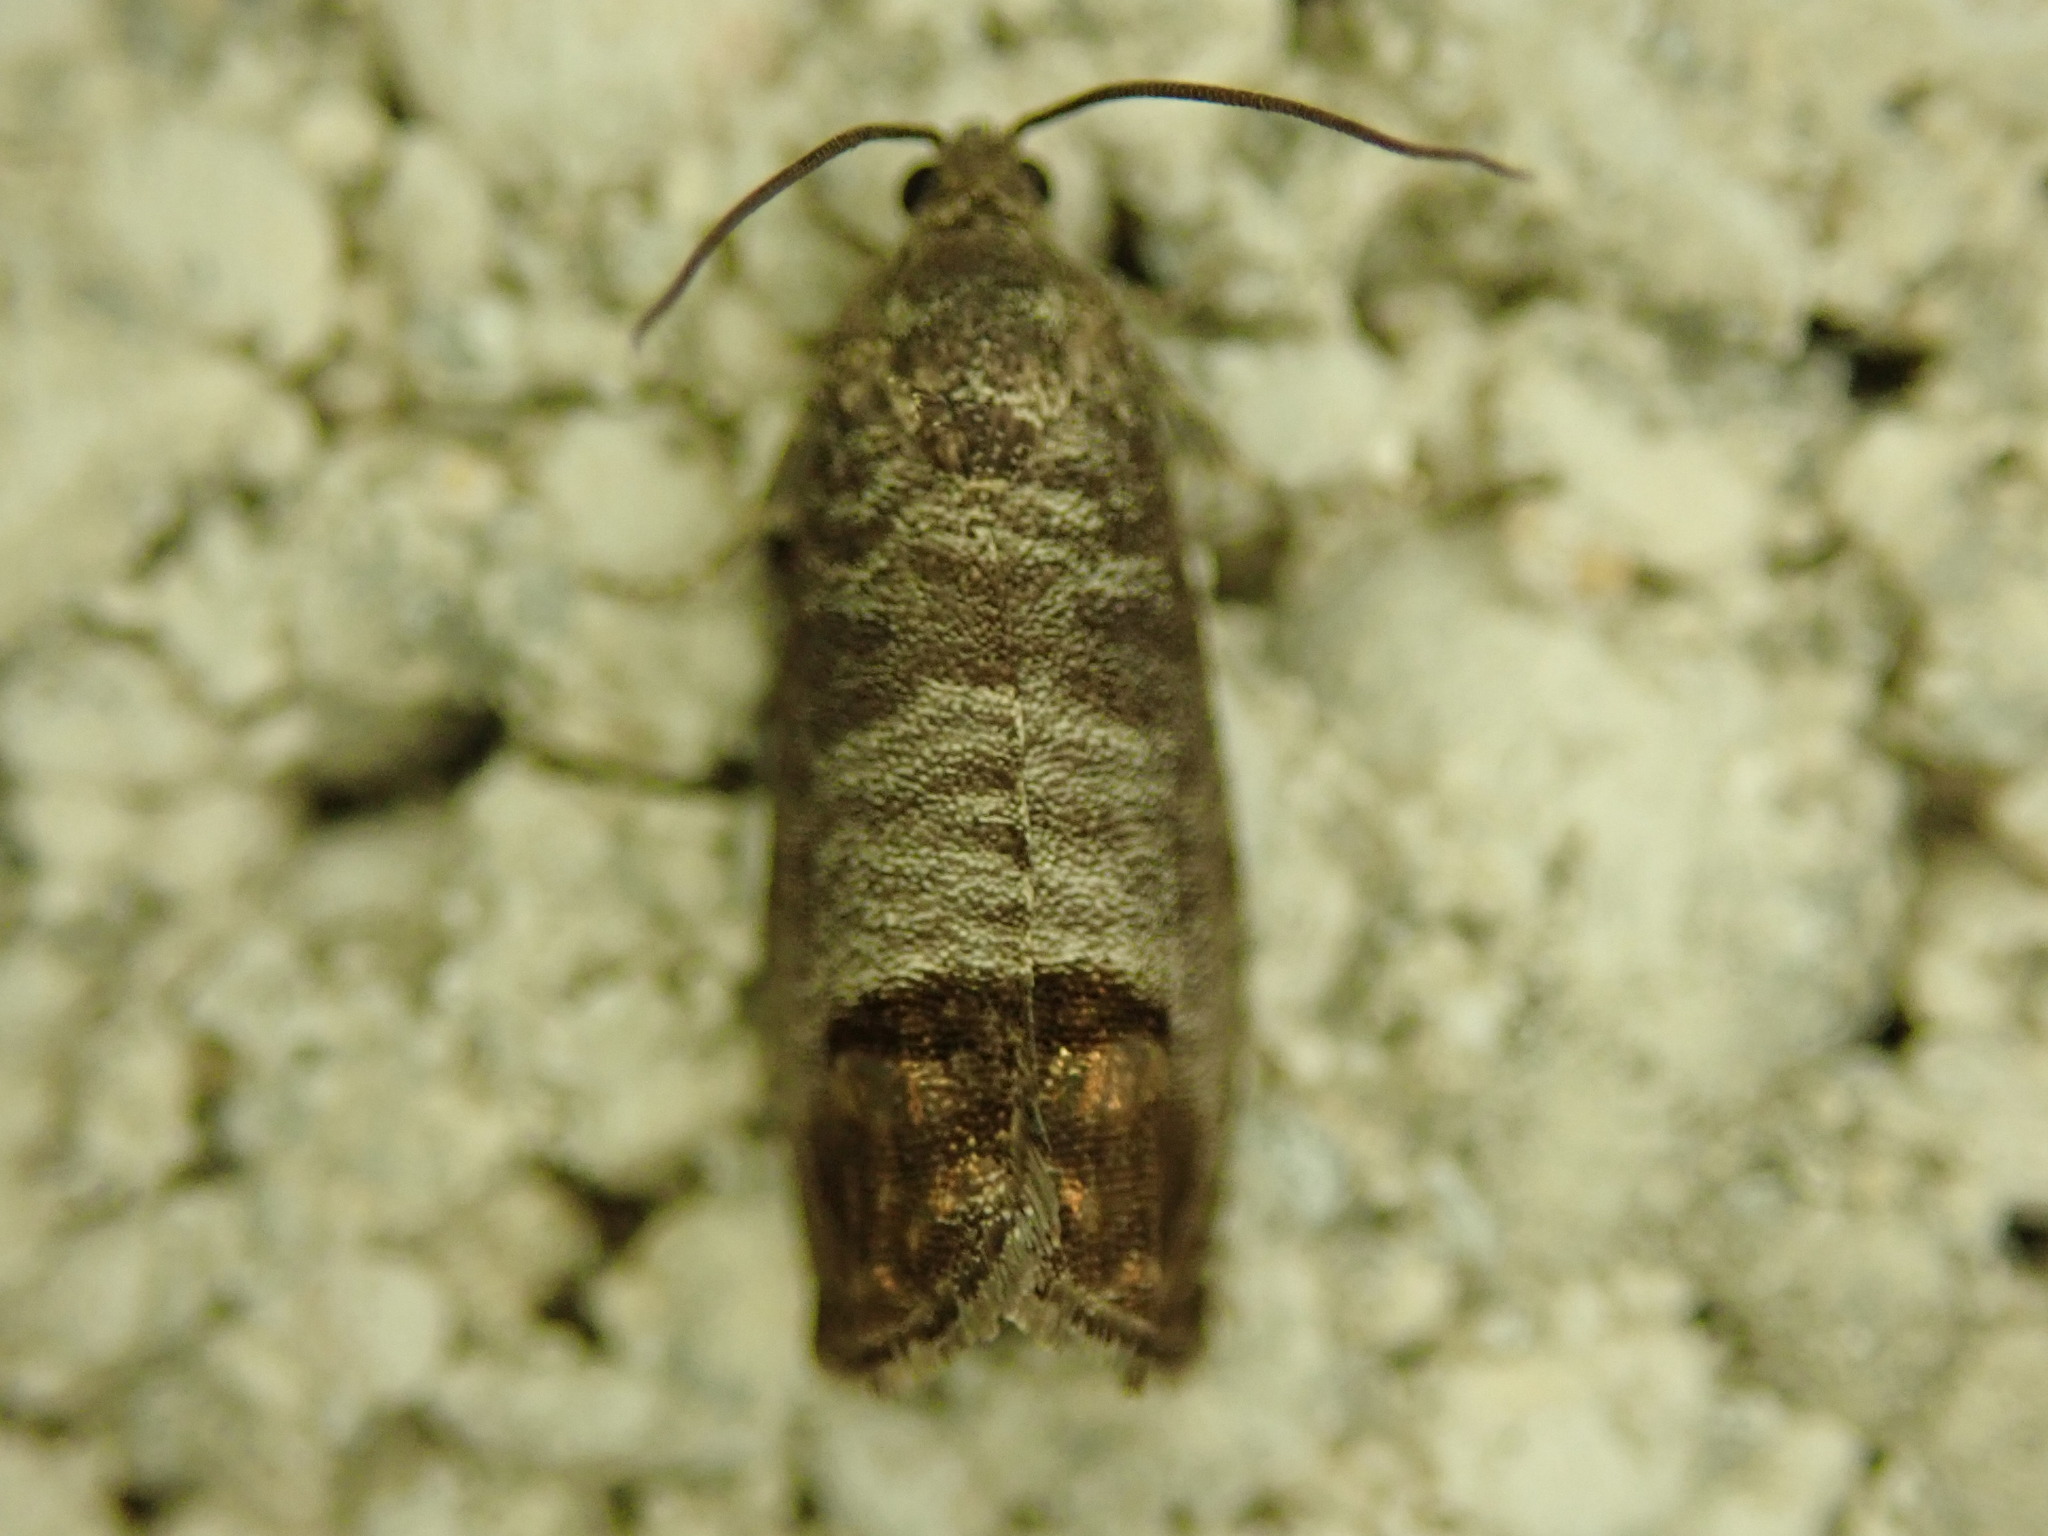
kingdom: Animalia
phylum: Arthropoda
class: Insecta
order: Lepidoptera
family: Tortricidae
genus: Cydia
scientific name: Cydia pomonella
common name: Codling moth
